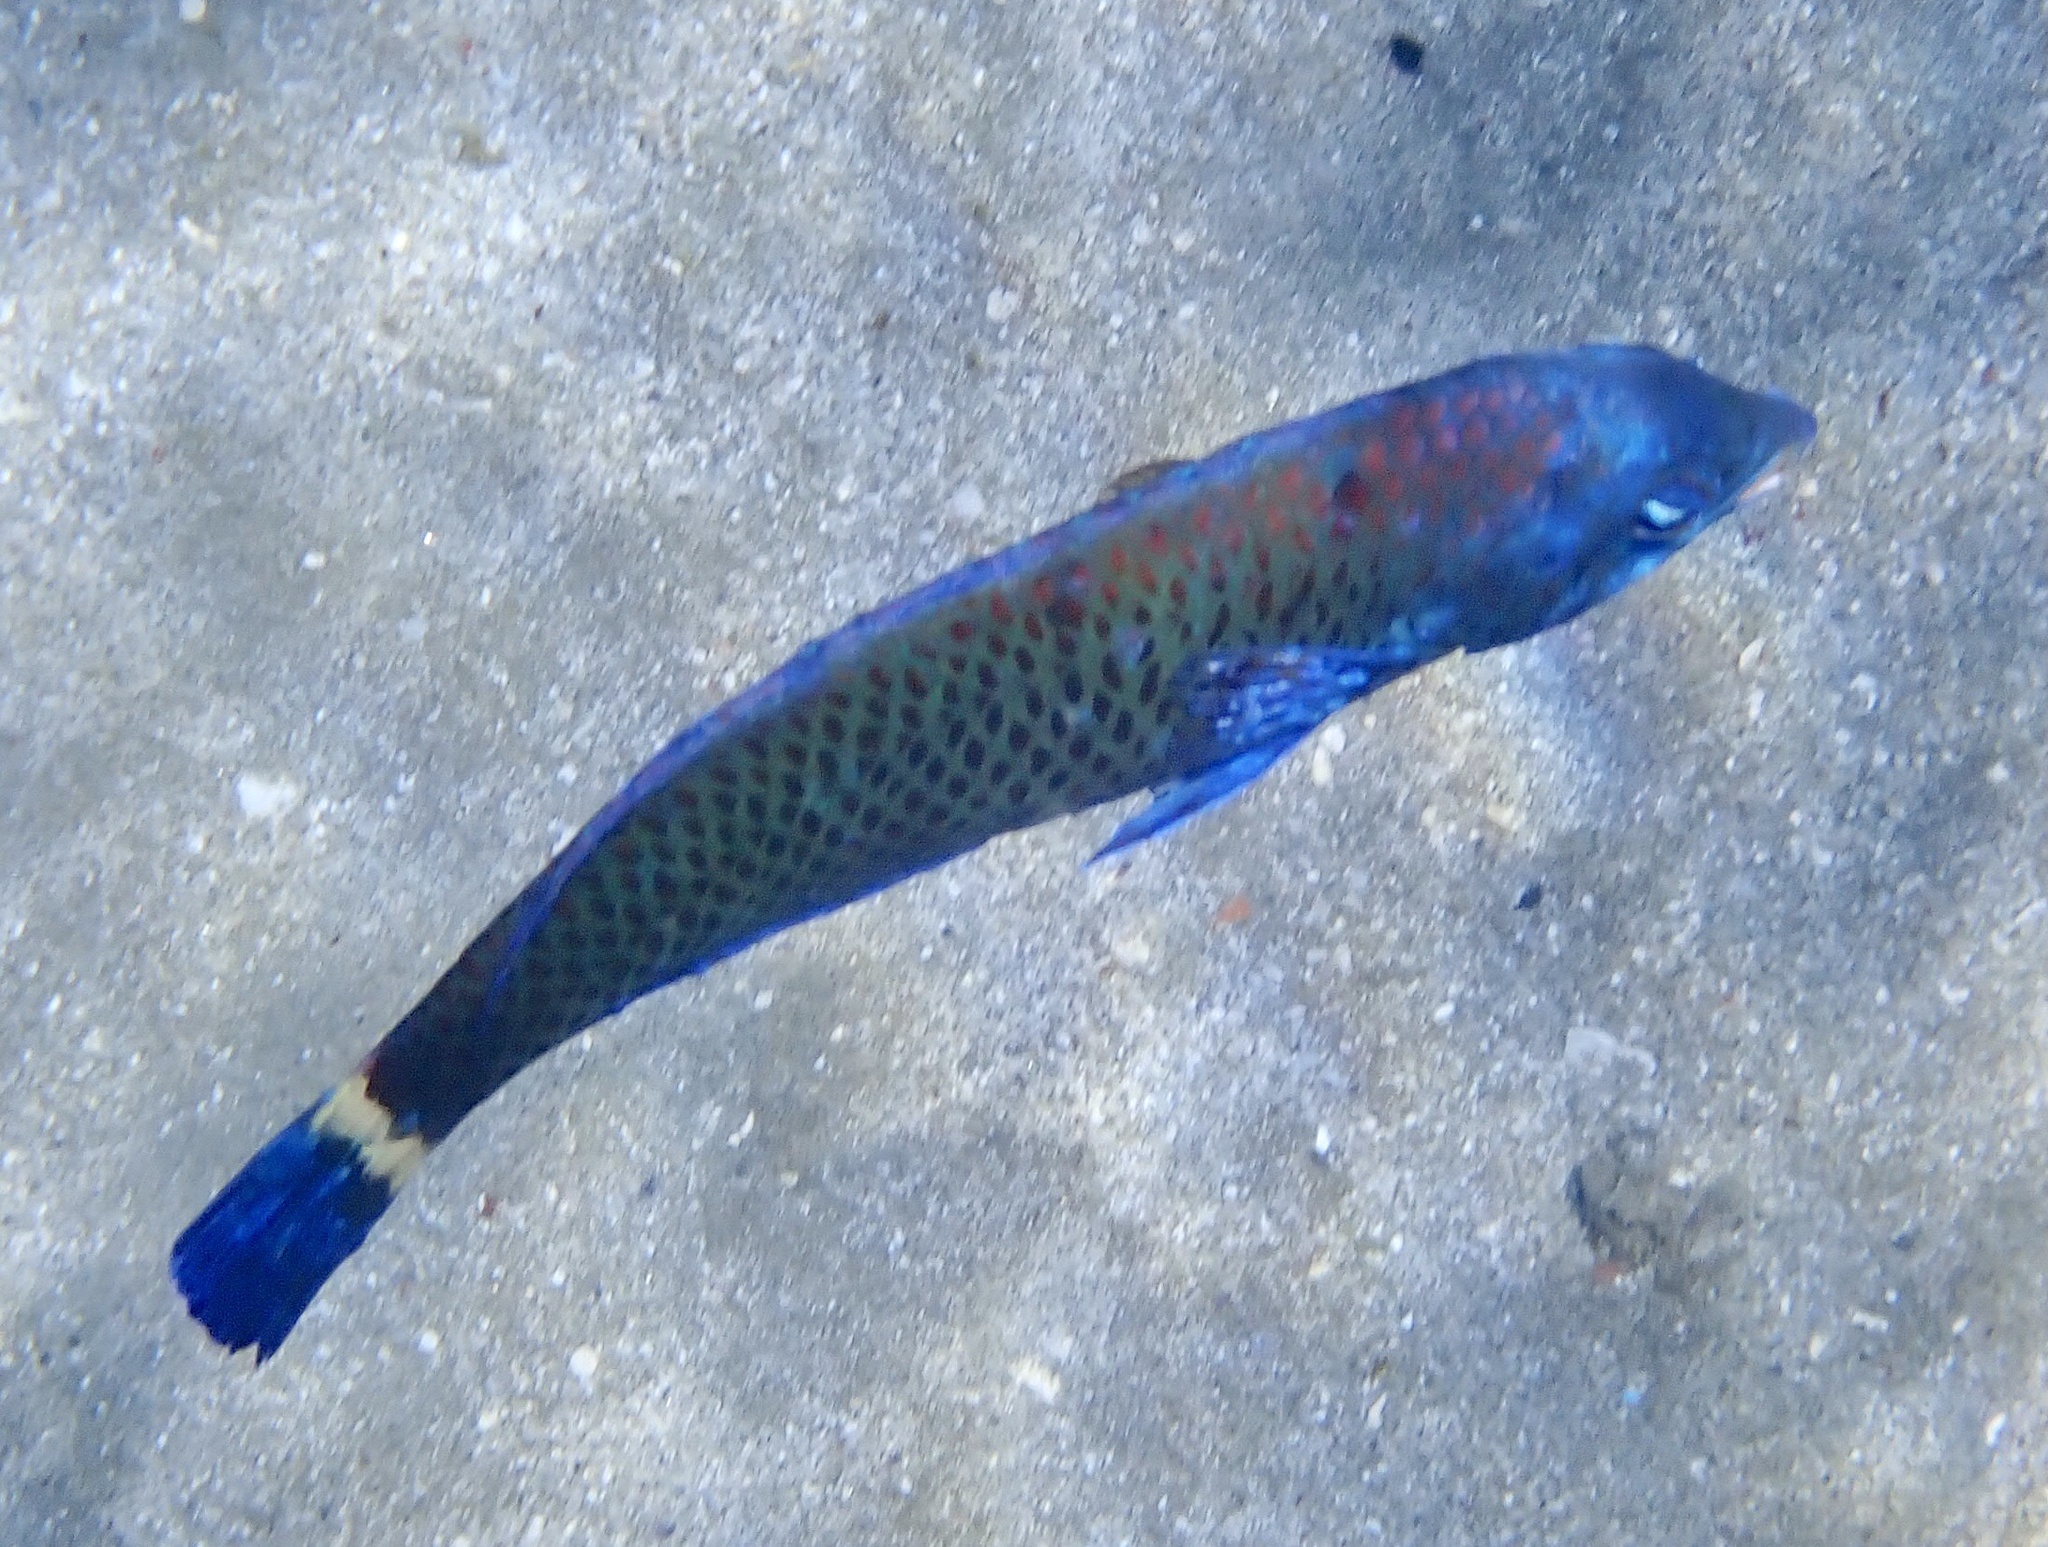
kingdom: Animalia
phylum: Chordata
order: Perciformes
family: Labridae
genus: Pseudodax
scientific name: Pseudodax moluccanus
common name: Chiseltooth wrasse
